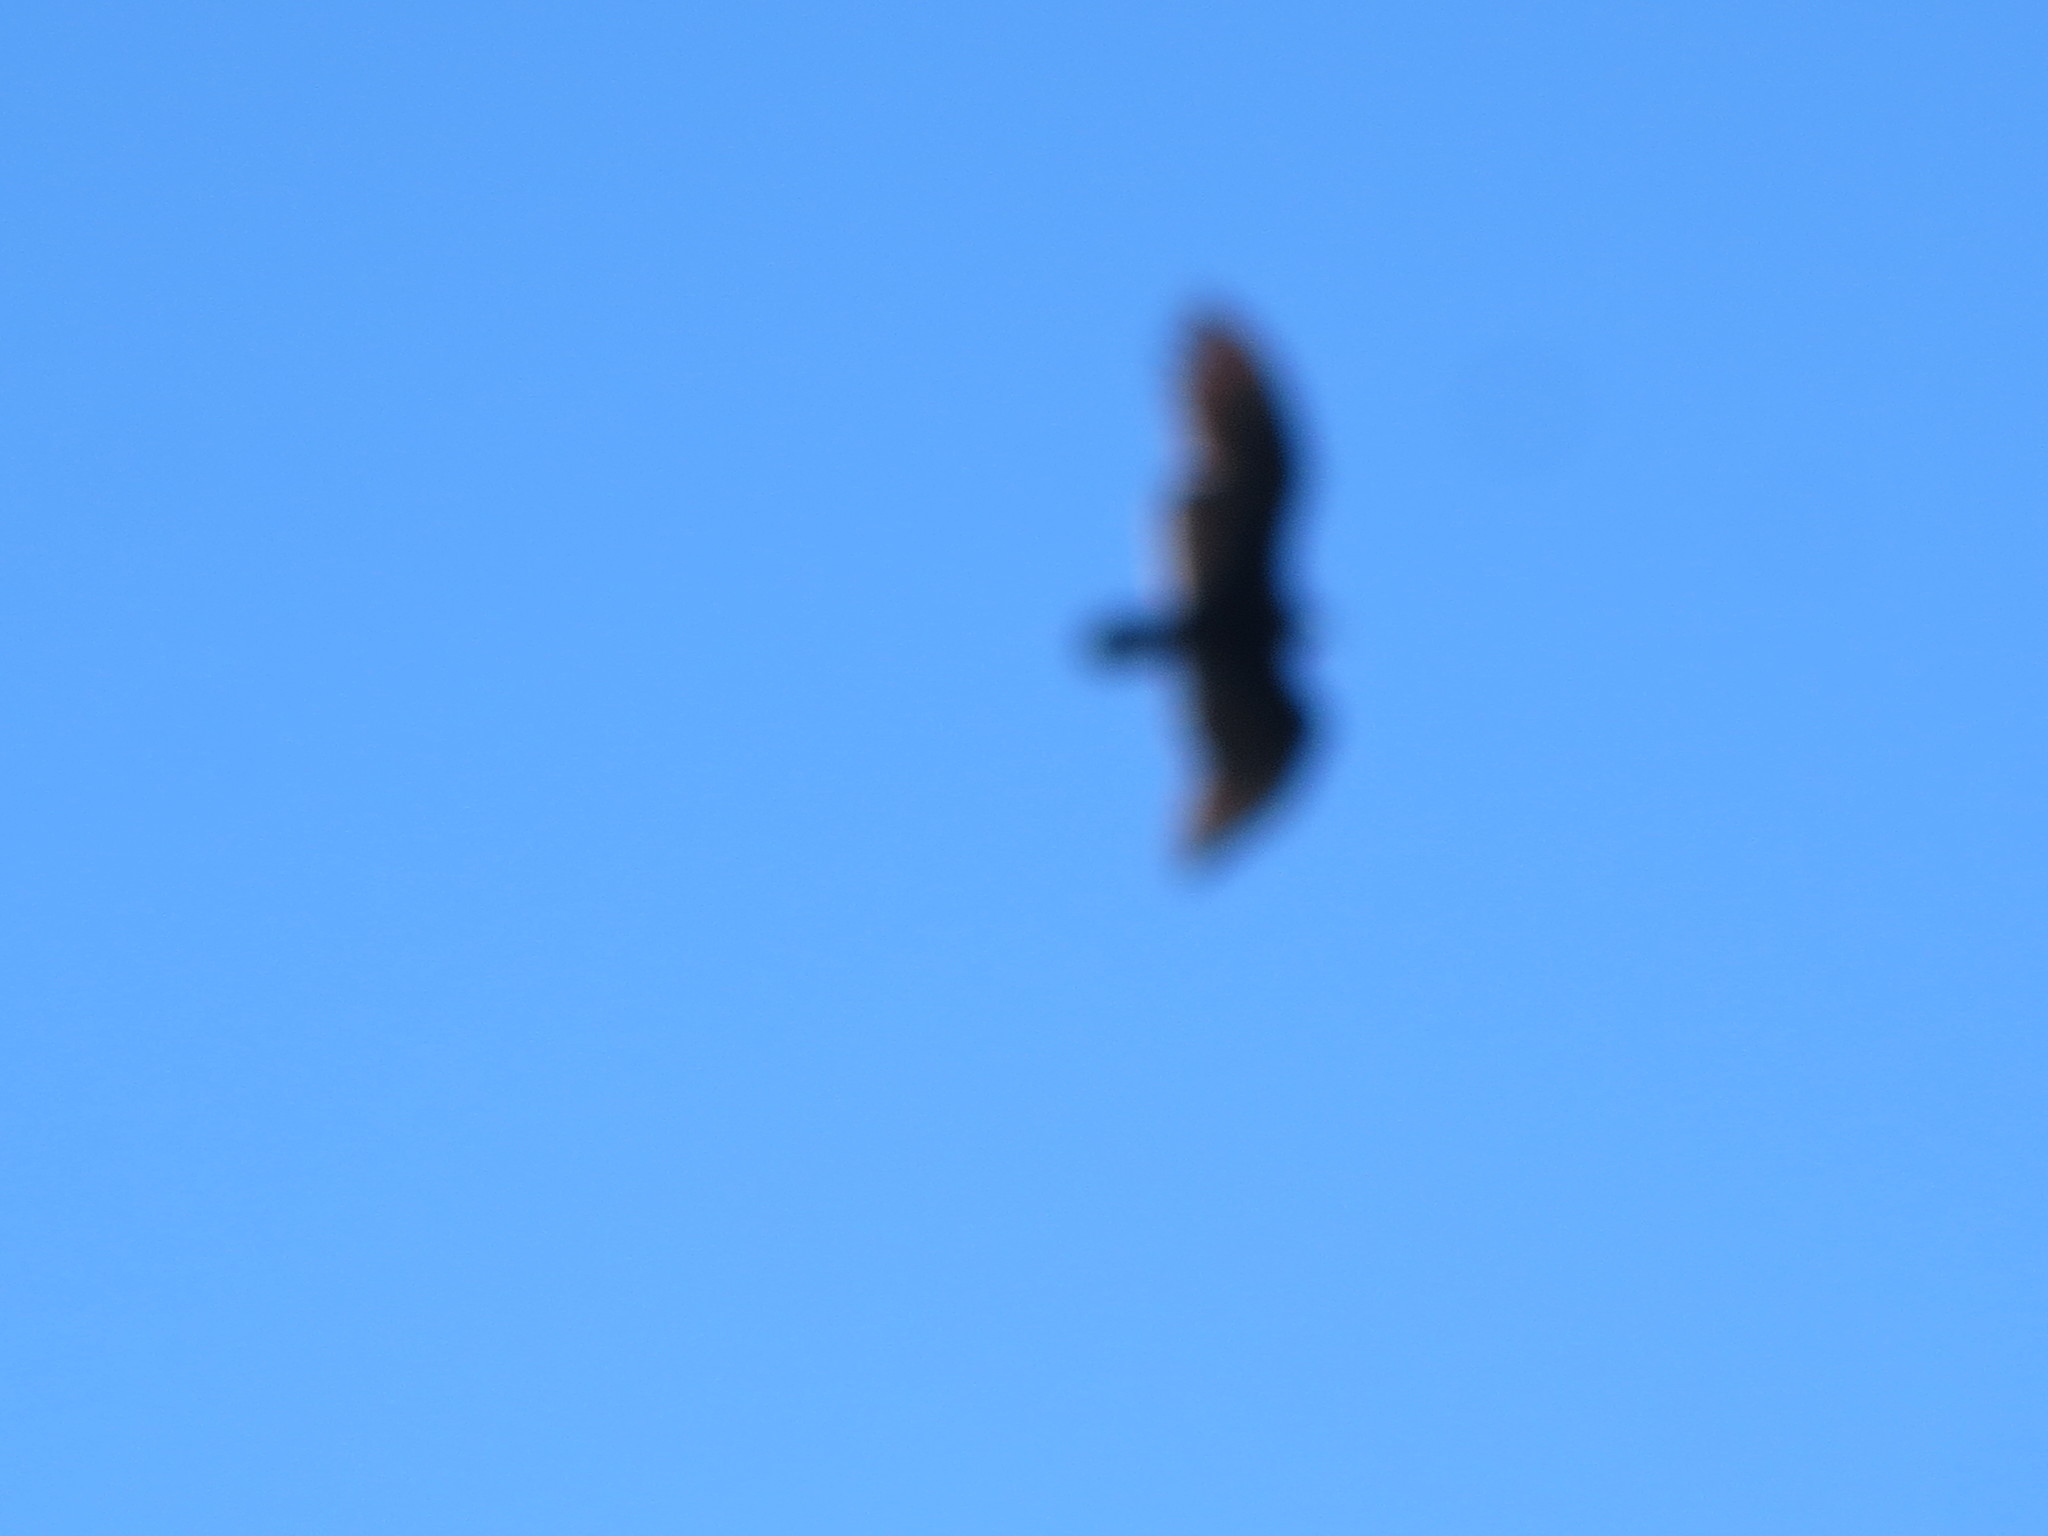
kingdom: Animalia
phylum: Chordata
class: Aves
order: Accipitriformes
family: Cathartidae
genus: Cathartes
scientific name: Cathartes aura
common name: Turkey vulture
